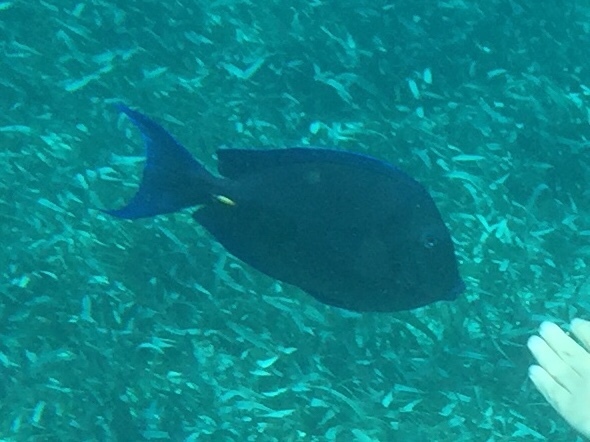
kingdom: Animalia
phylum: Chordata
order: Perciformes
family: Acanthuridae
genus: Acanthurus
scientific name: Acanthurus coeruleus
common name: Blue tang
